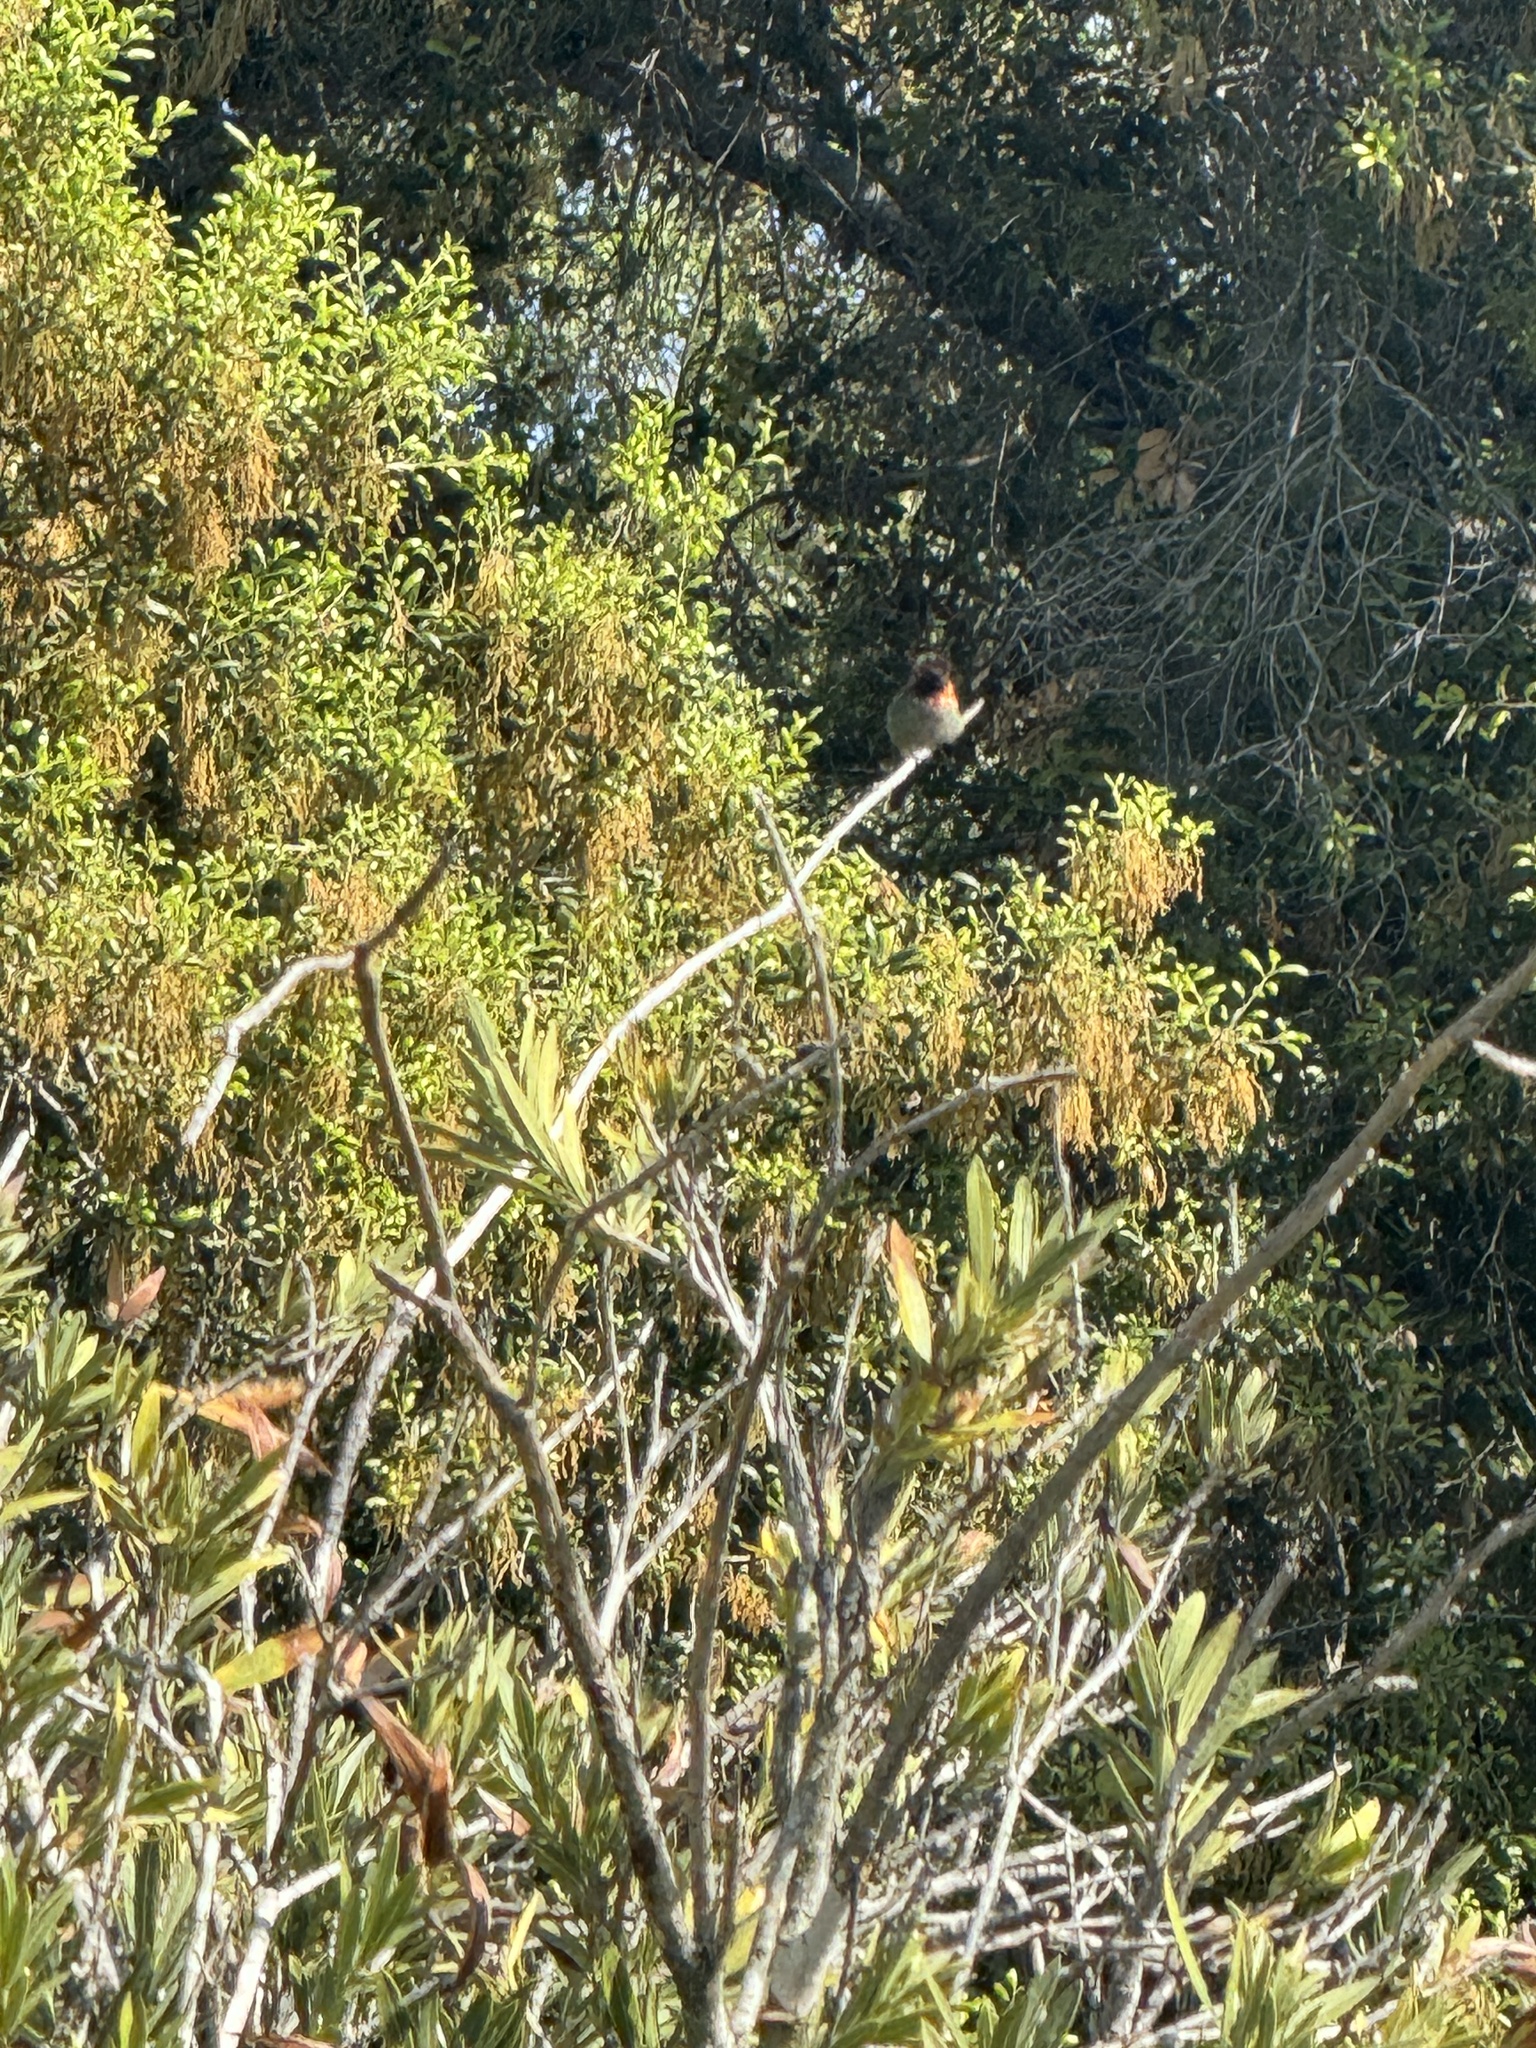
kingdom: Animalia
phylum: Chordata
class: Aves
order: Apodiformes
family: Trochilidae
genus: Calypte
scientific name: Calypte anna
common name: Anna's hummingbird
